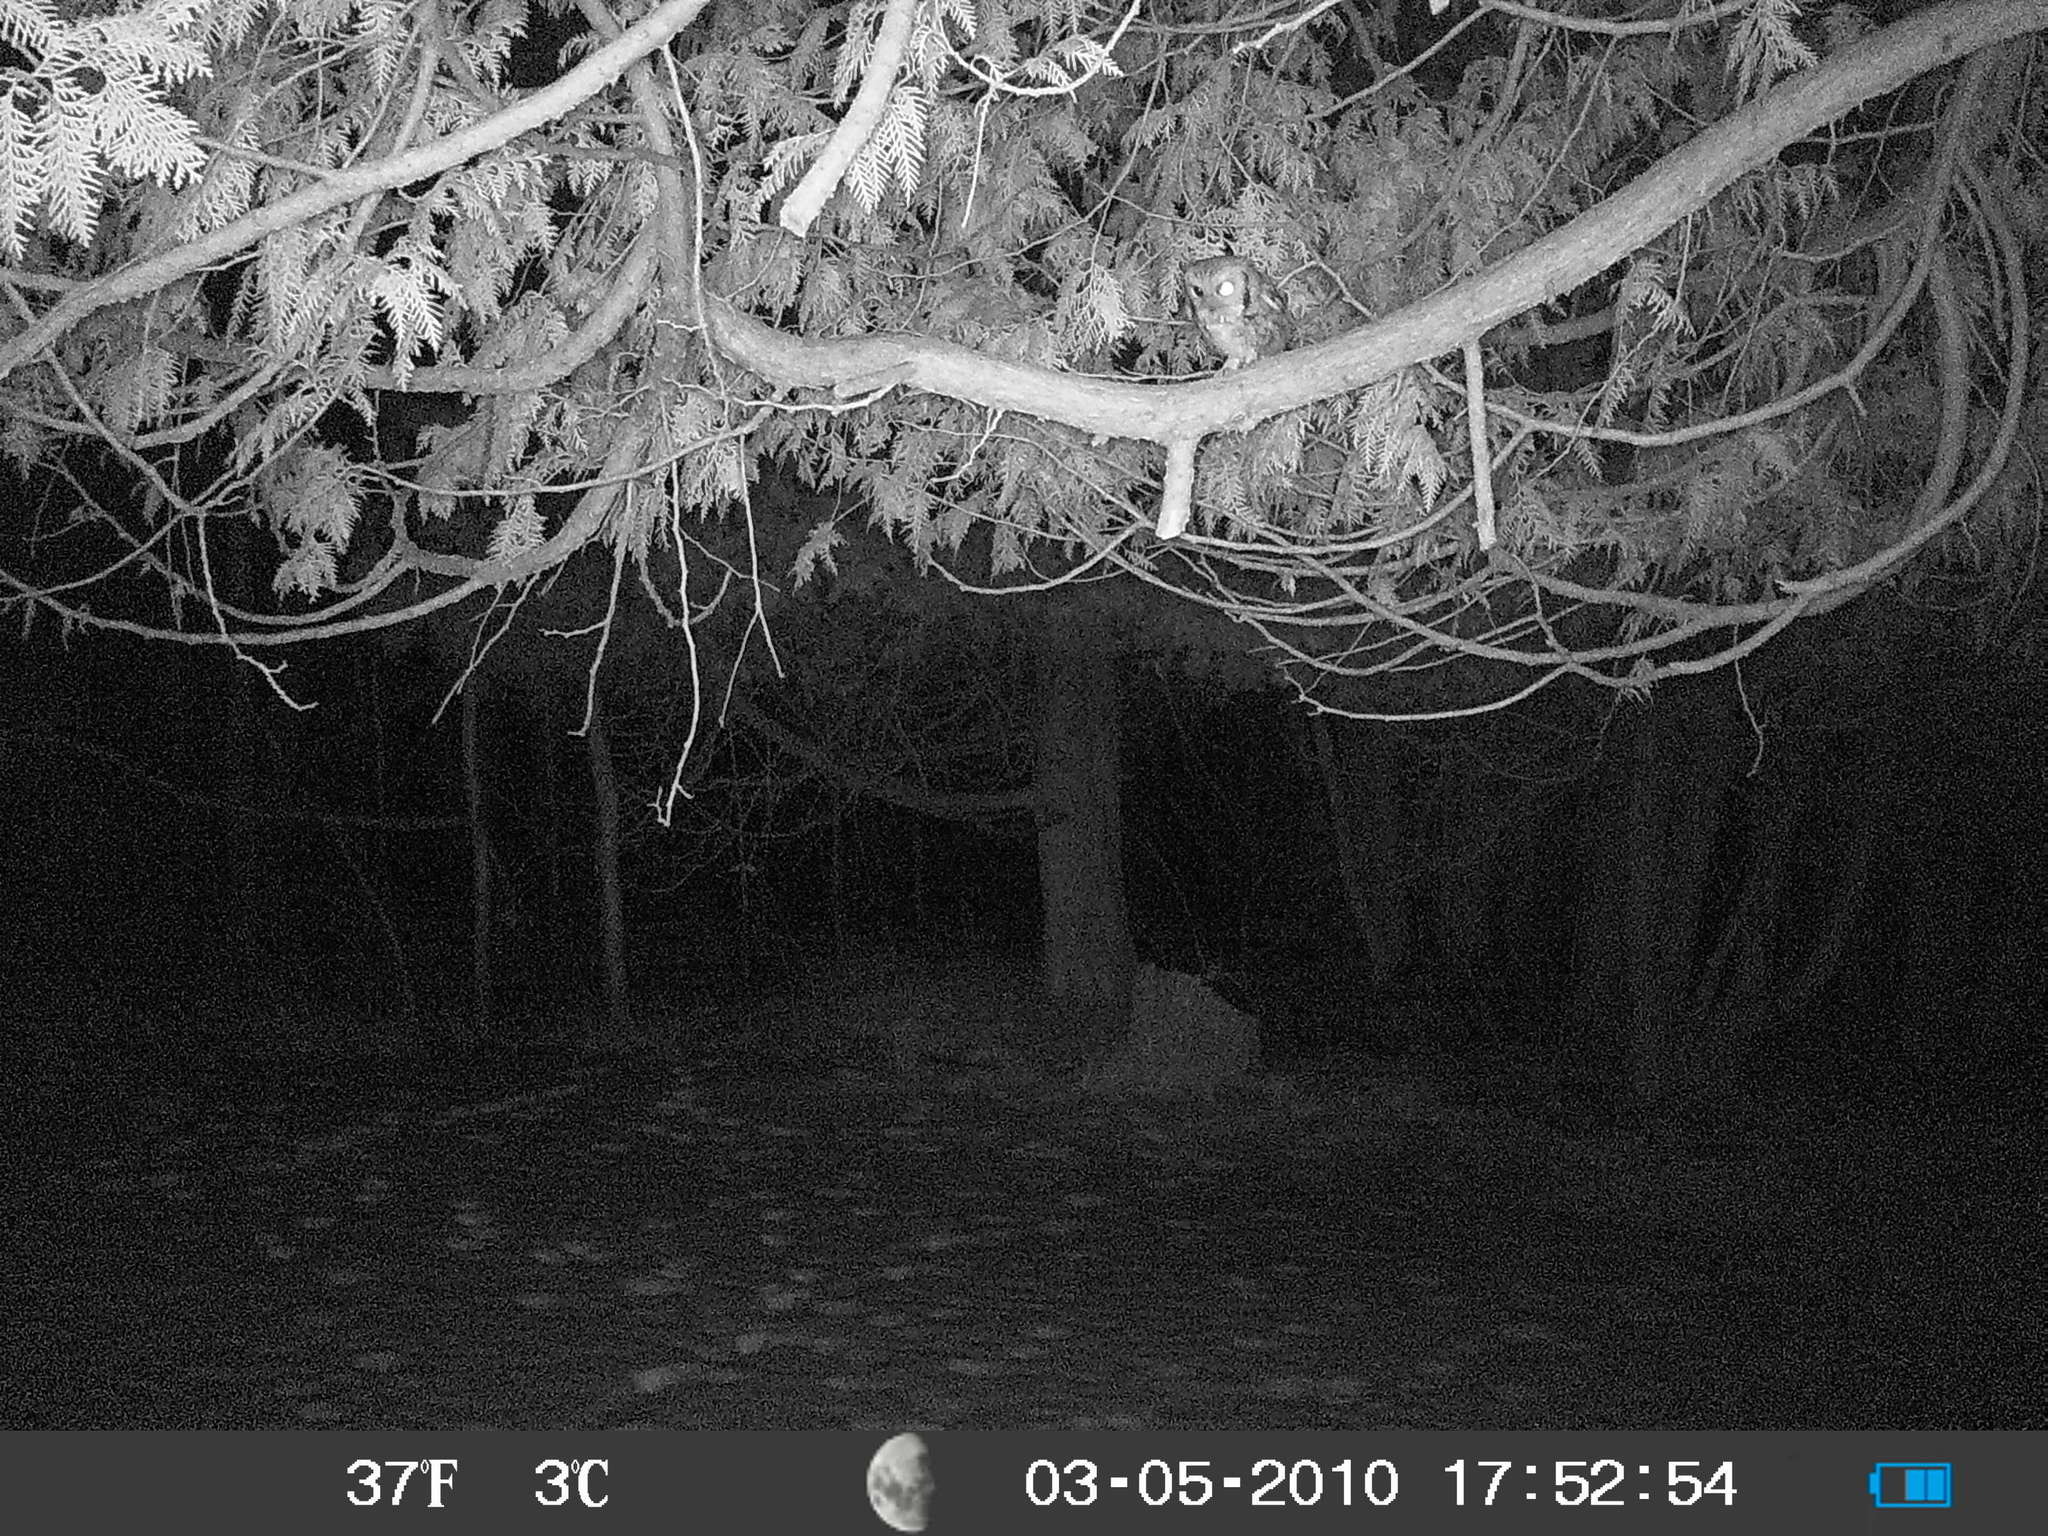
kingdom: Animalia
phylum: Chordata
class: Aves
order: Strigiformes
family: Strigidae
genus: Megascops
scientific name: Megascops asio
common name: Eastern screech-owl
